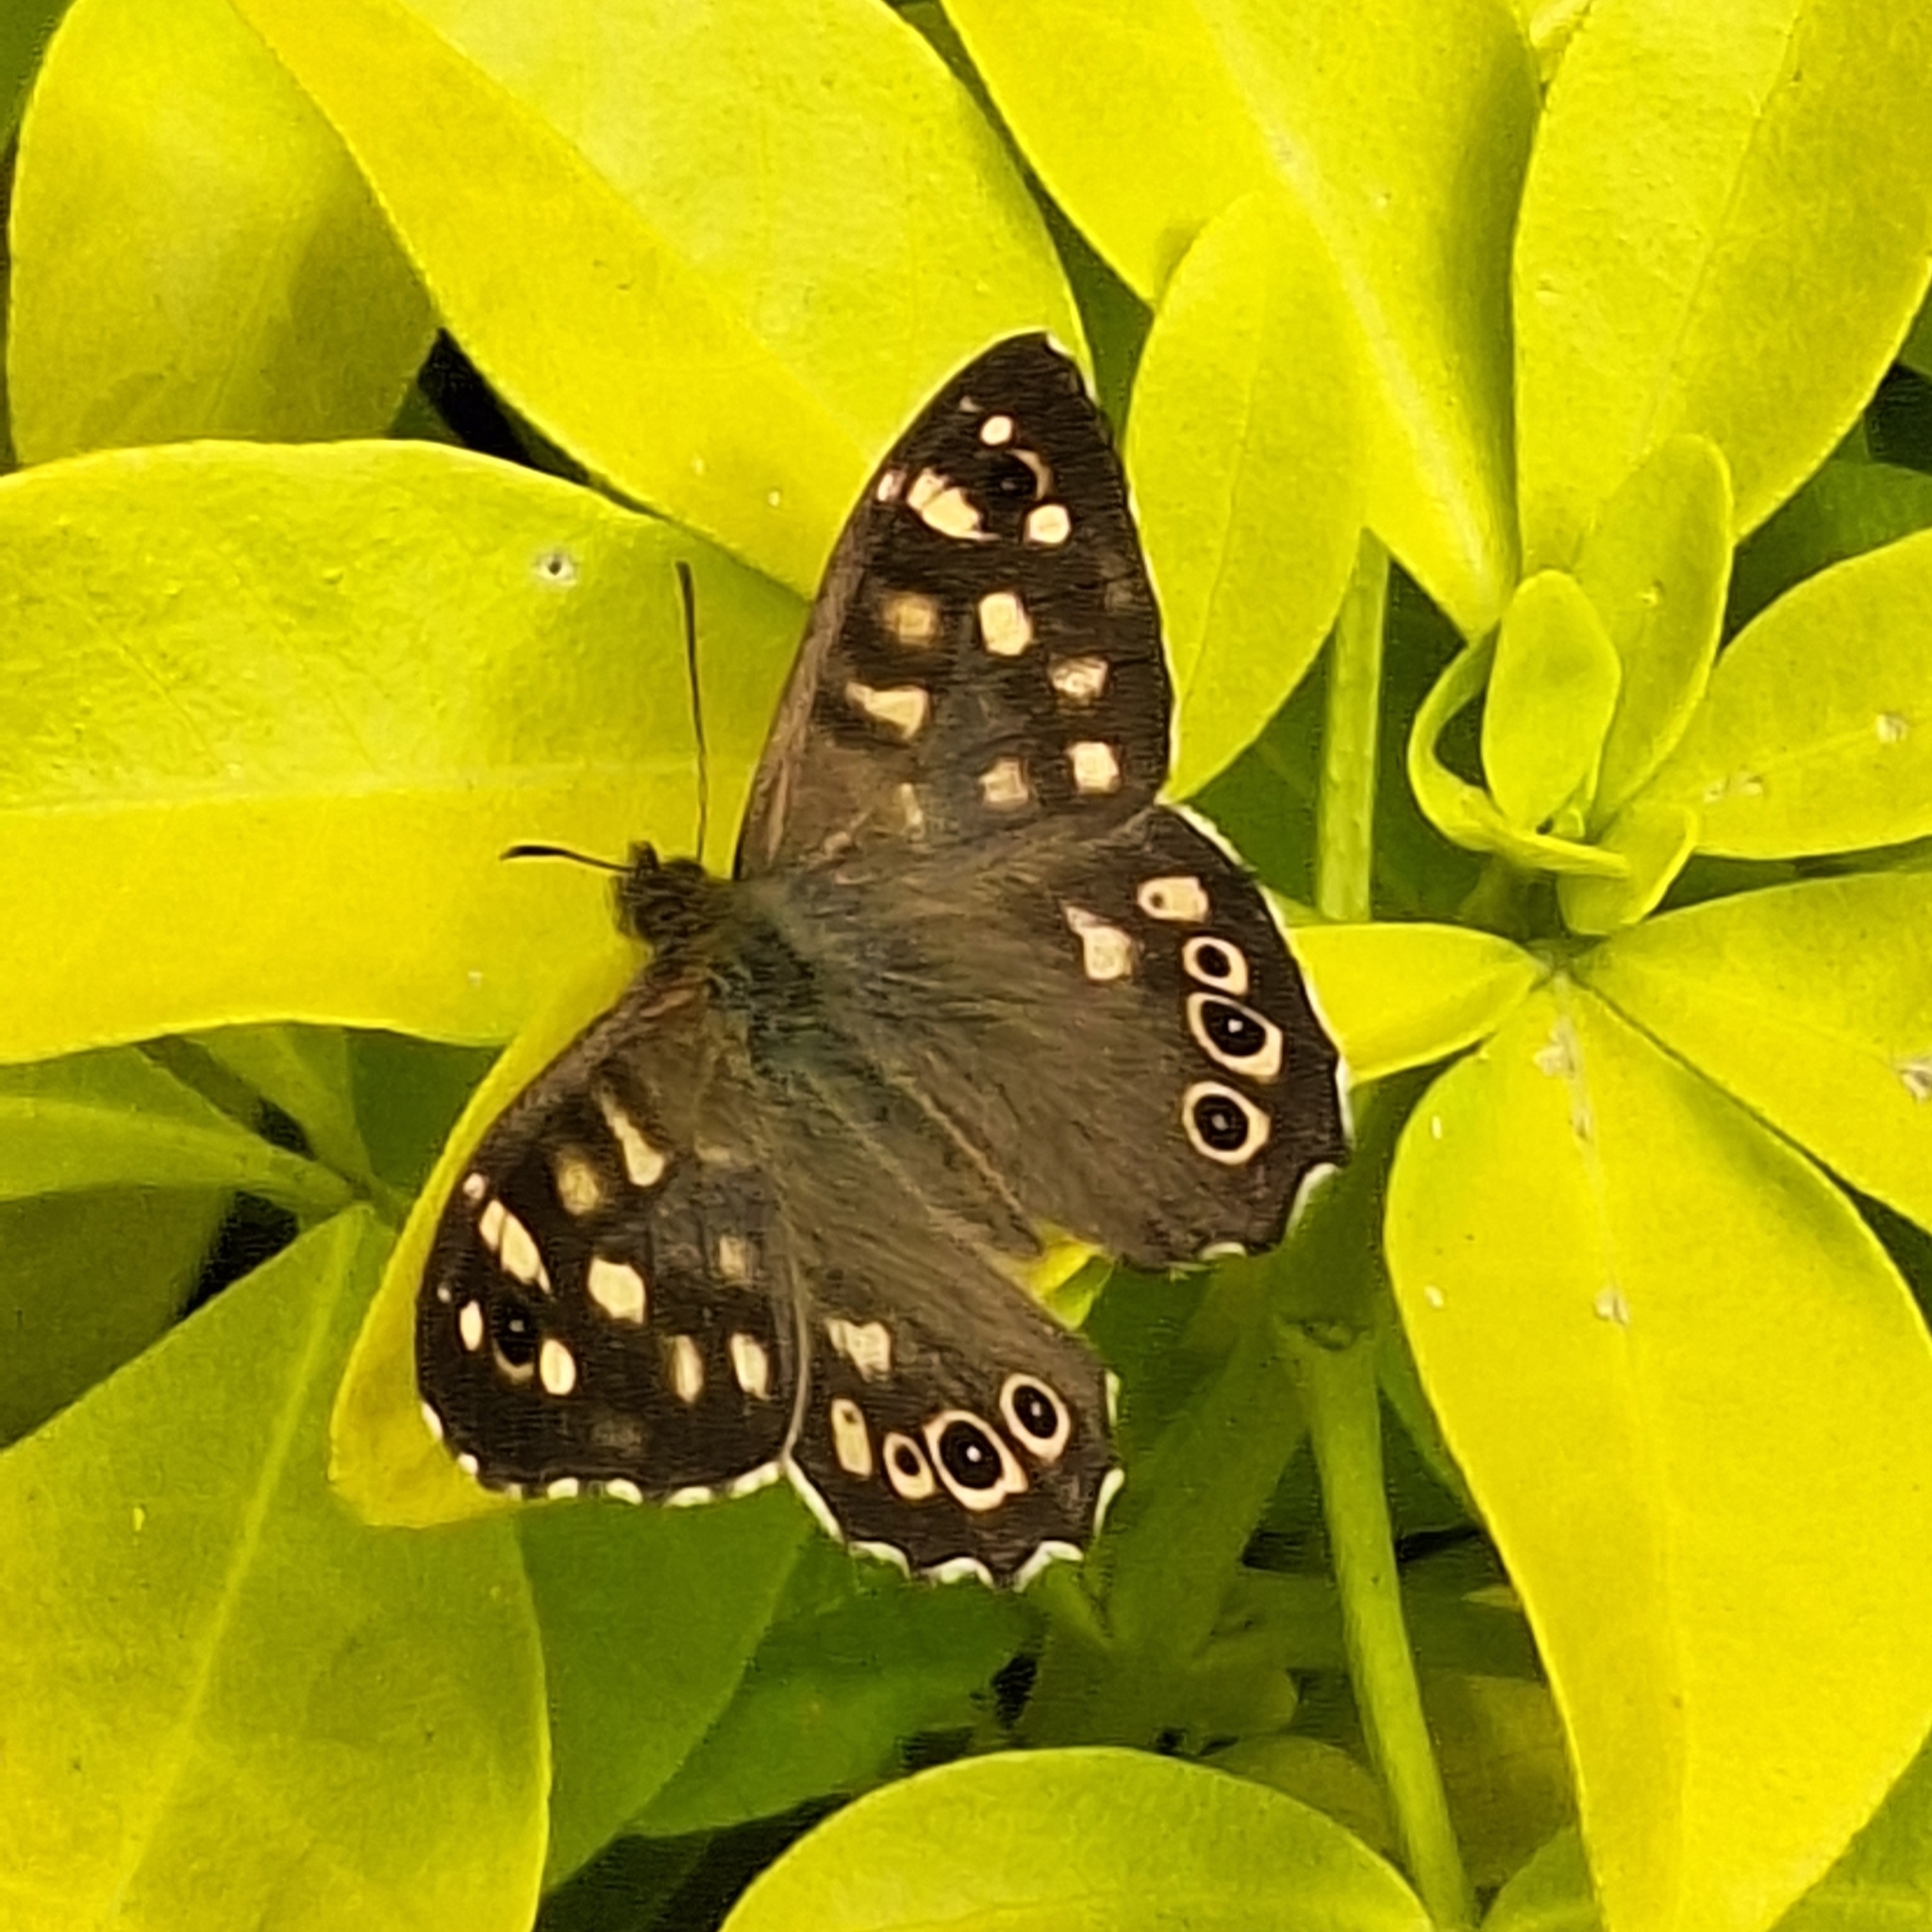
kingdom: Animalia
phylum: Arthropoda
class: Insecta
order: Lepidoptera
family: Nymphalidae
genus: Pararge
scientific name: Pararge aegeria
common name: Speckled wood
